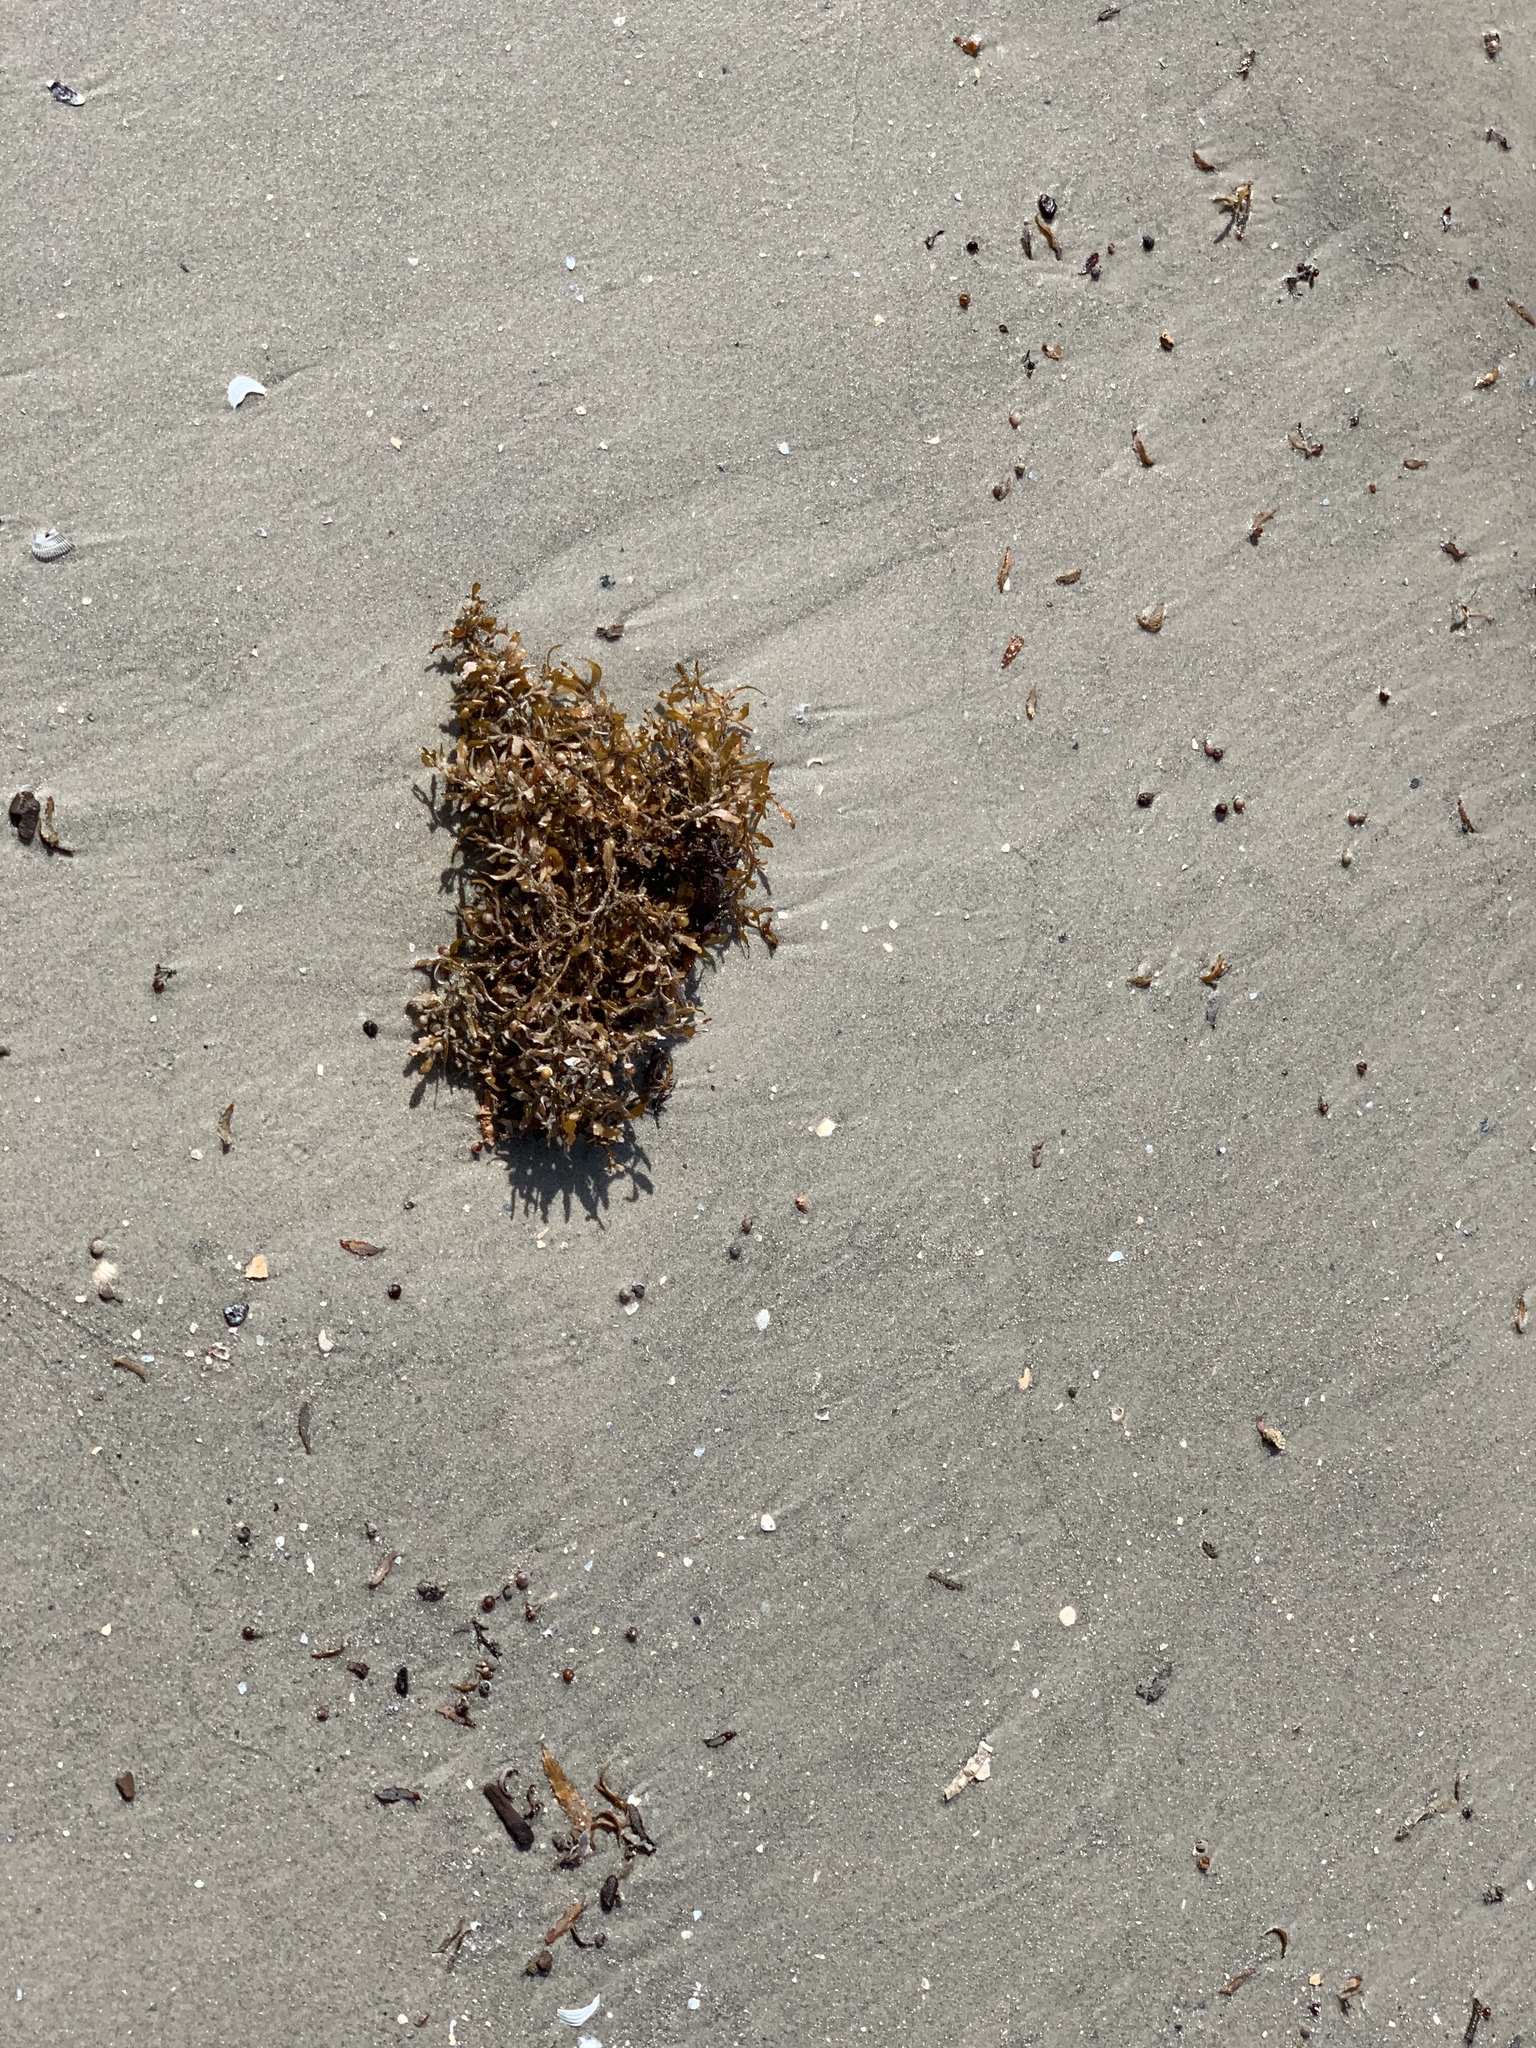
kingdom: Chromista
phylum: Ochrophyta
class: Phaeophyceae
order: Fucales
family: Sargassaceae
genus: Sargassum
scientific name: Sargassum fluitans
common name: Sargassum seaweed
